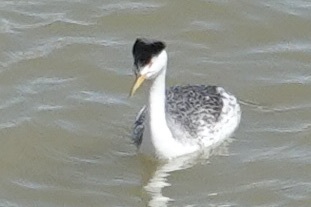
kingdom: Animalia
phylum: Chordata
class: Aves
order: Podicipediformes
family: Podicipedidae
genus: Aechmophorus
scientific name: Aechmophorus clarkii
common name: Clark's grebe
